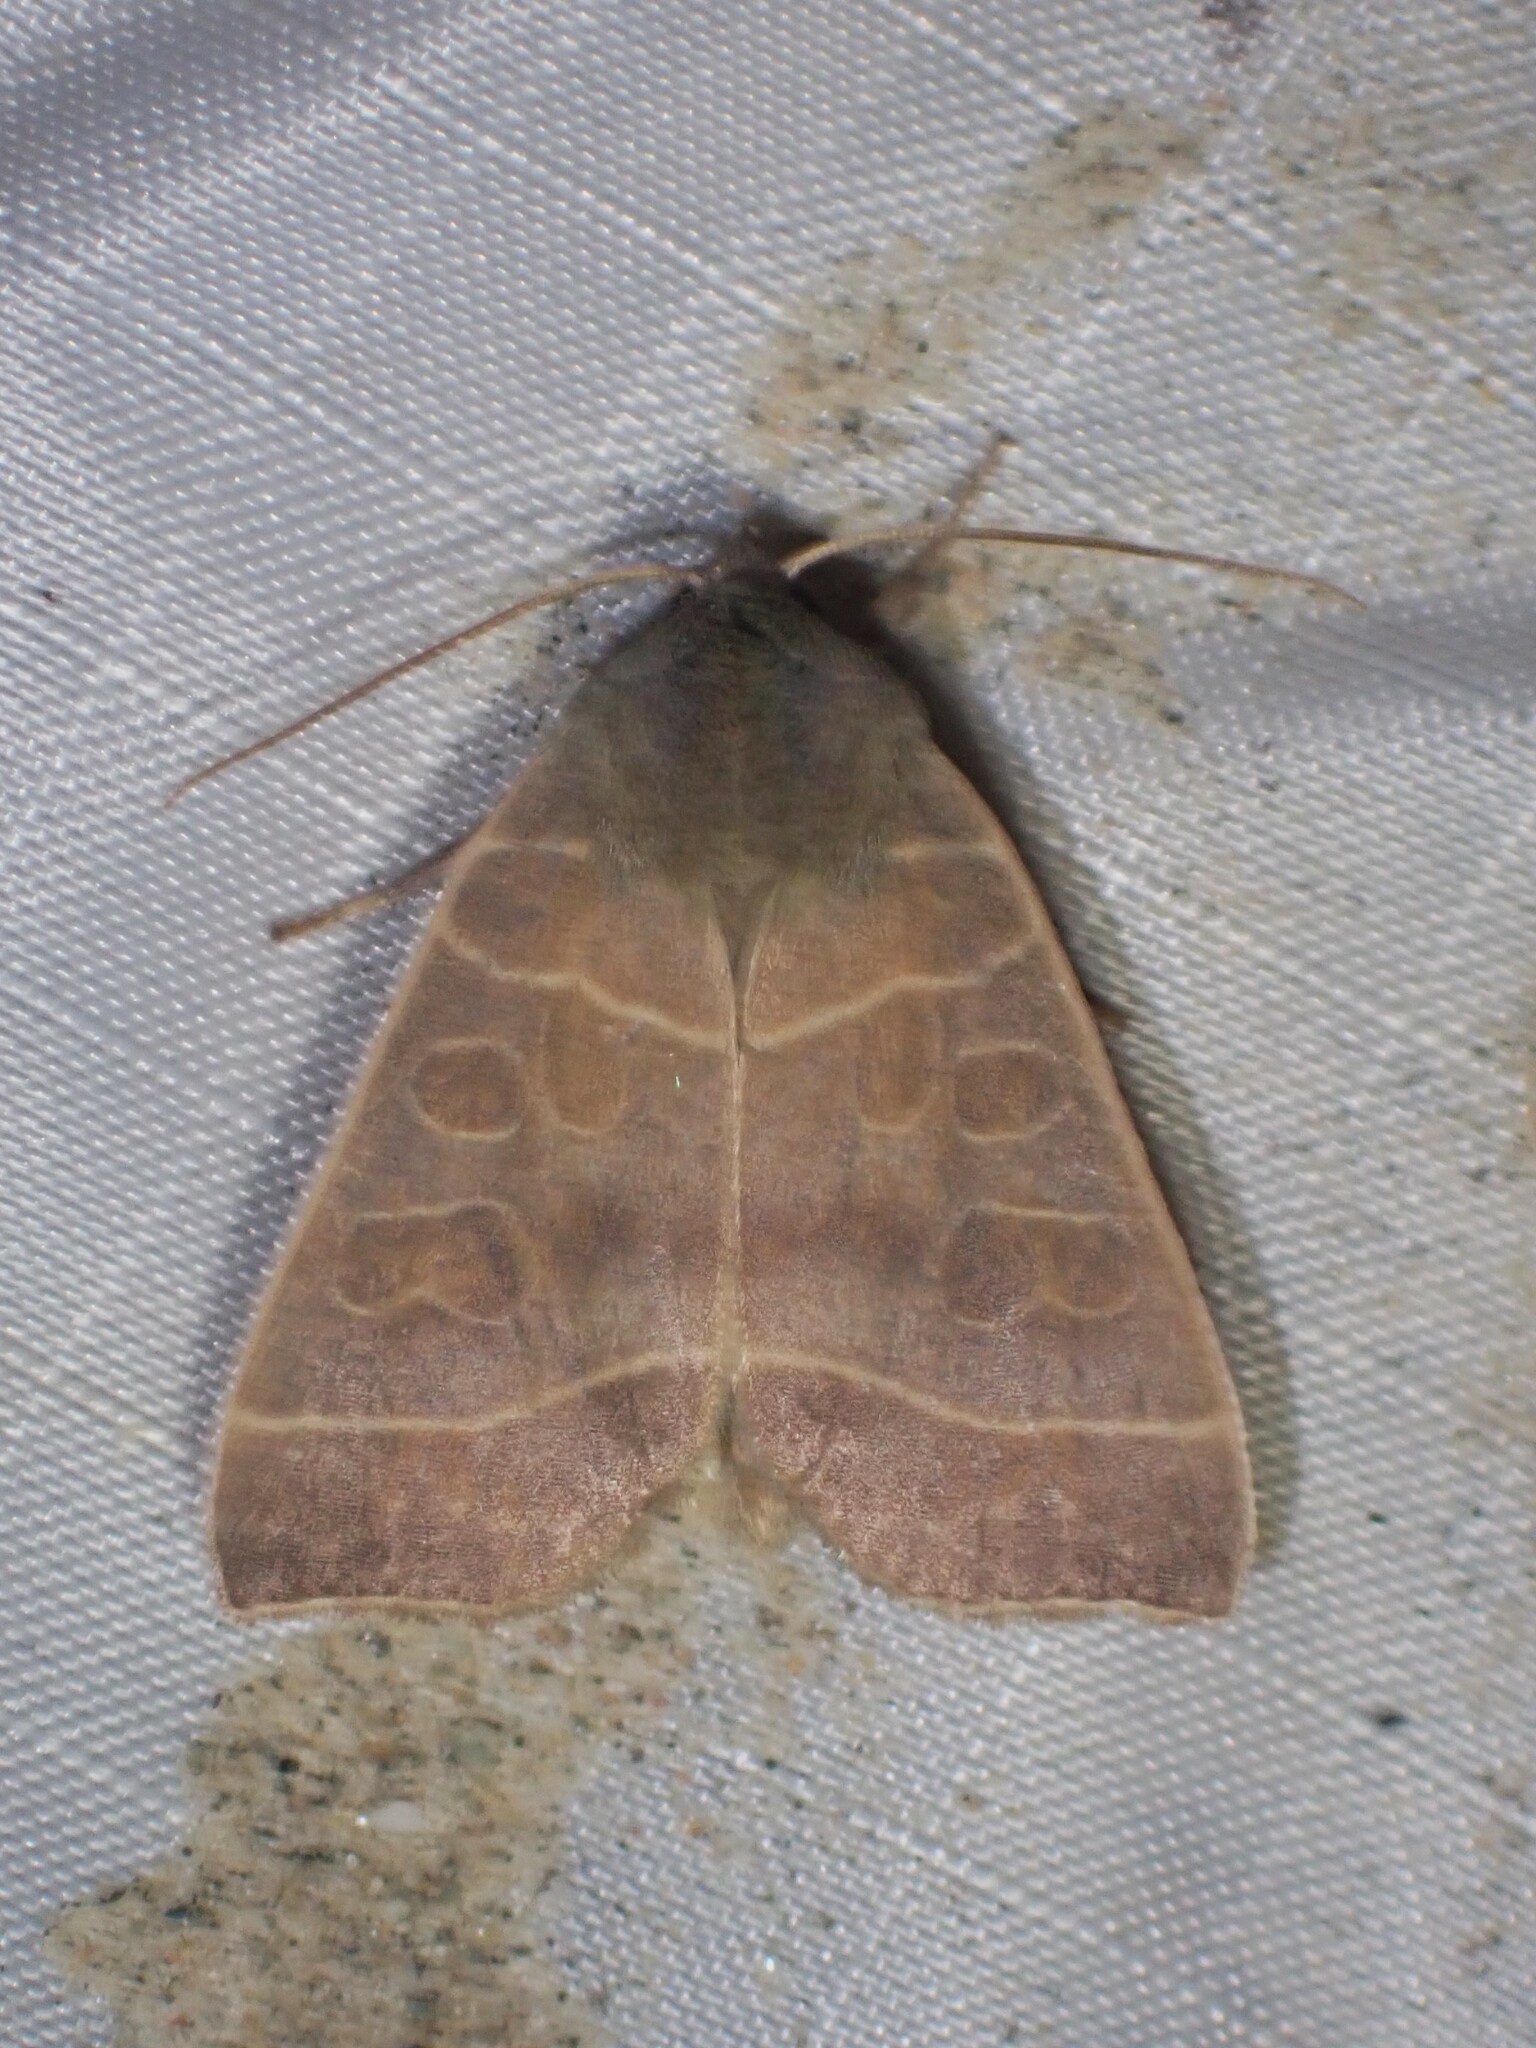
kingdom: Animalia
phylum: Arthropoda
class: Insecta
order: Lepidoptera
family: Noctuidae
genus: Ipimorpha
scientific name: Ipimorpha pleonectusa
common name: Even-lined sallow
